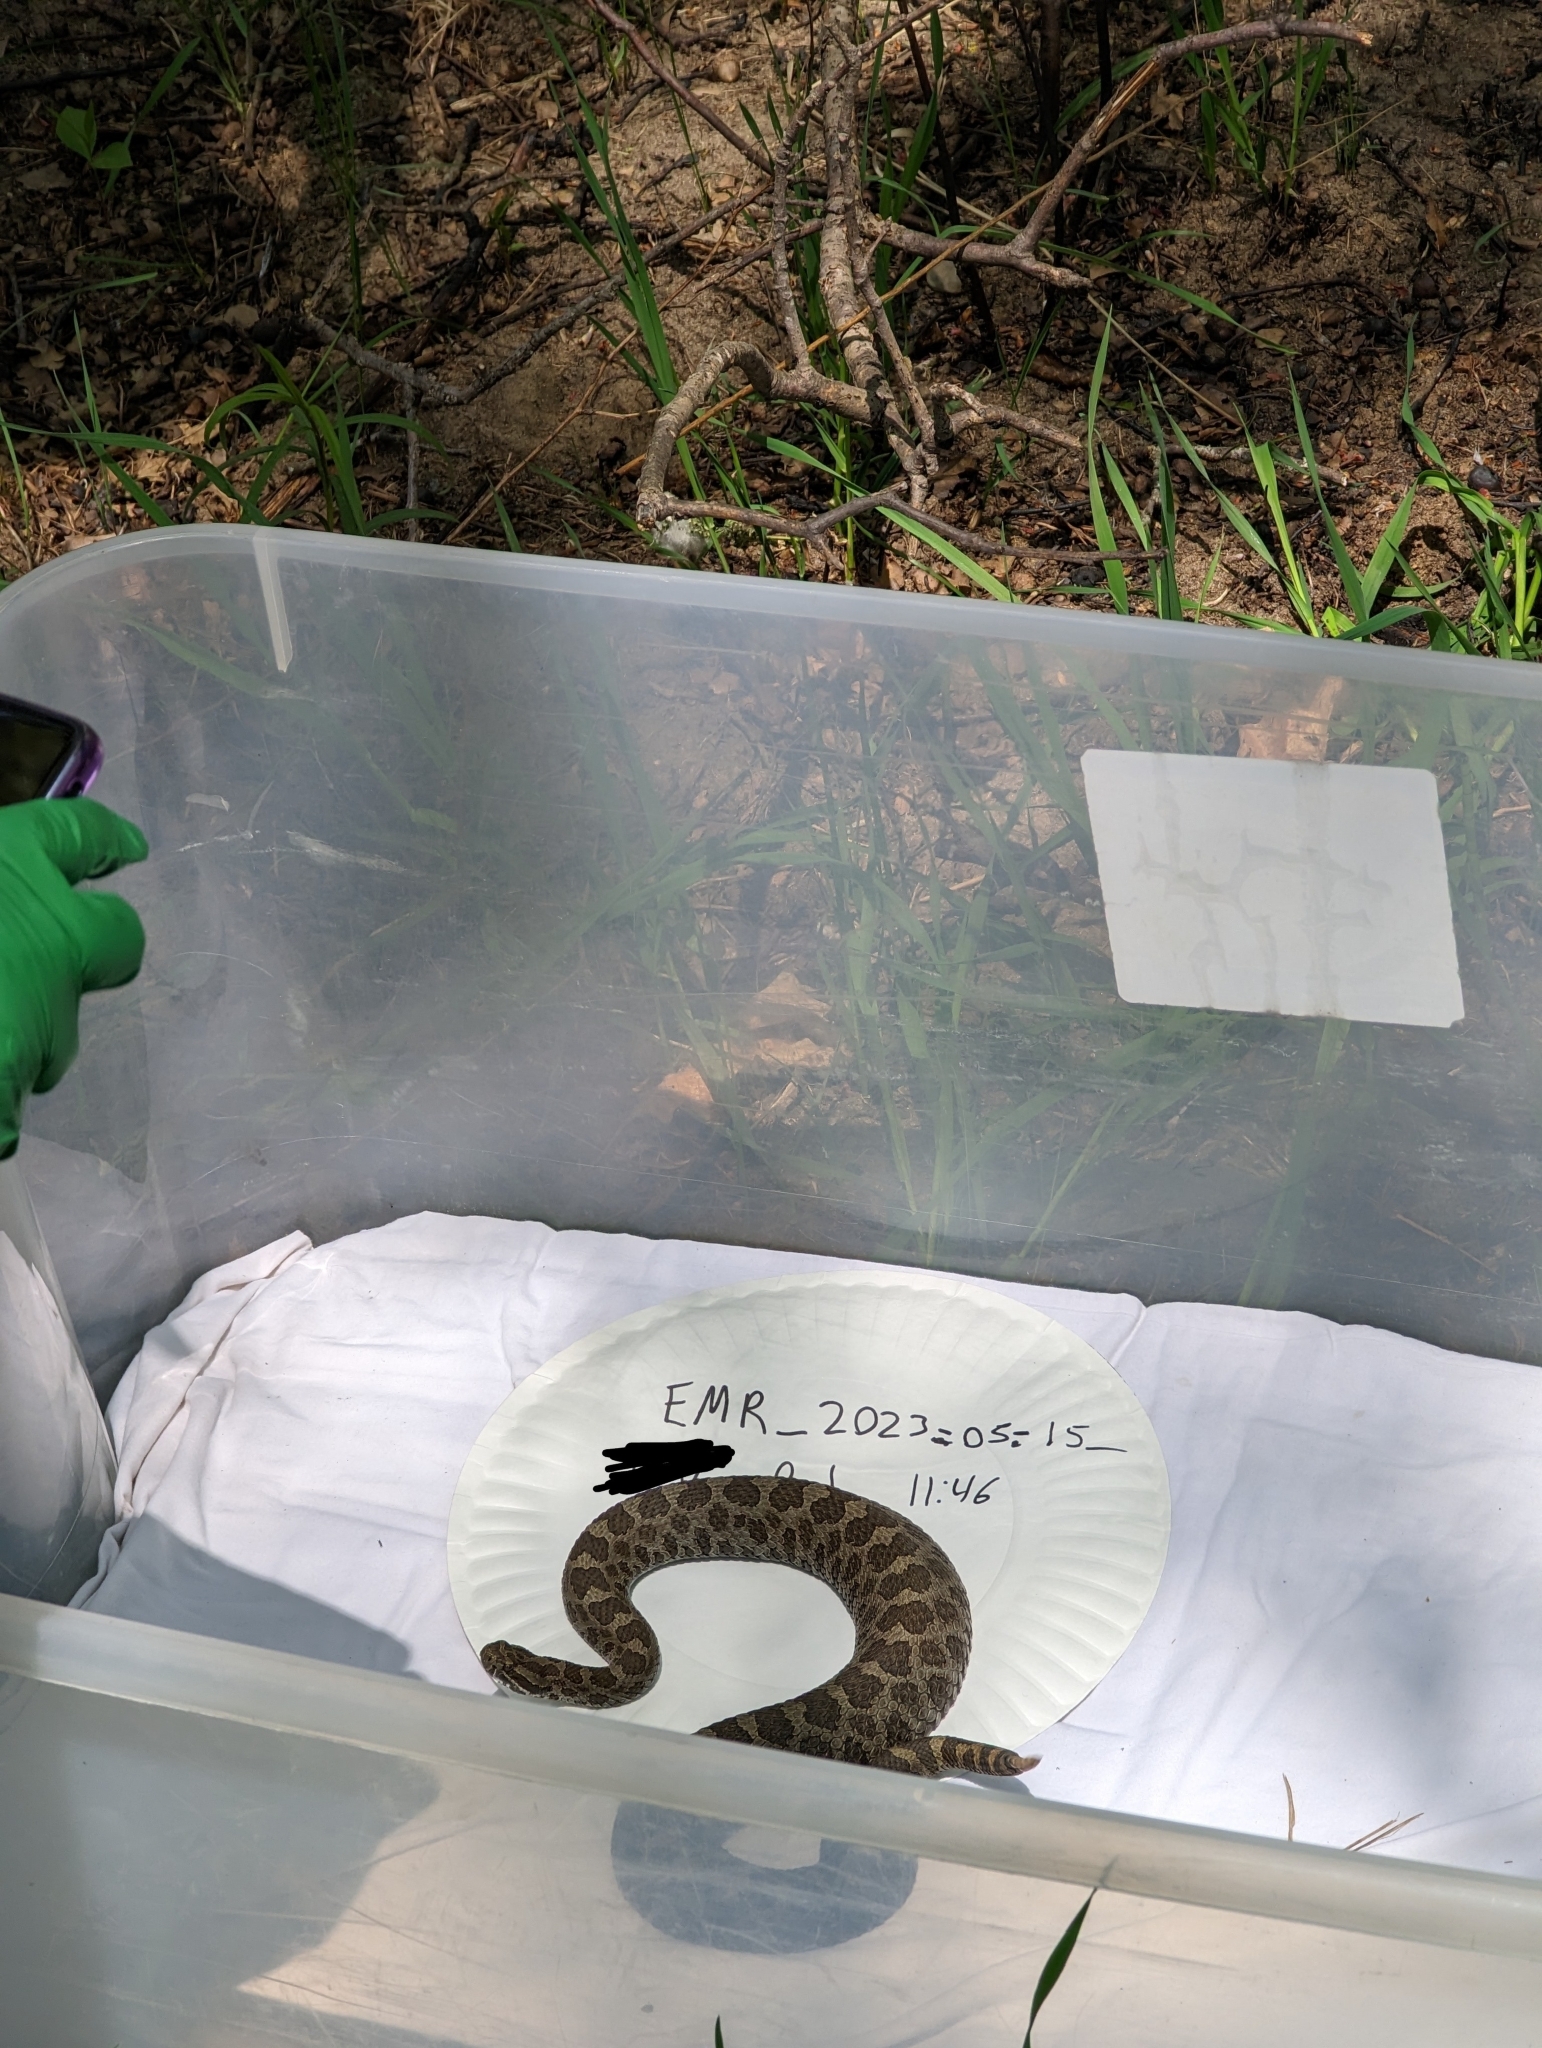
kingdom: Animalia
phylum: Chordata
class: Squamata
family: Viperidae
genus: Sistrurus
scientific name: Sistrurus catenatus
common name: Massasauga
